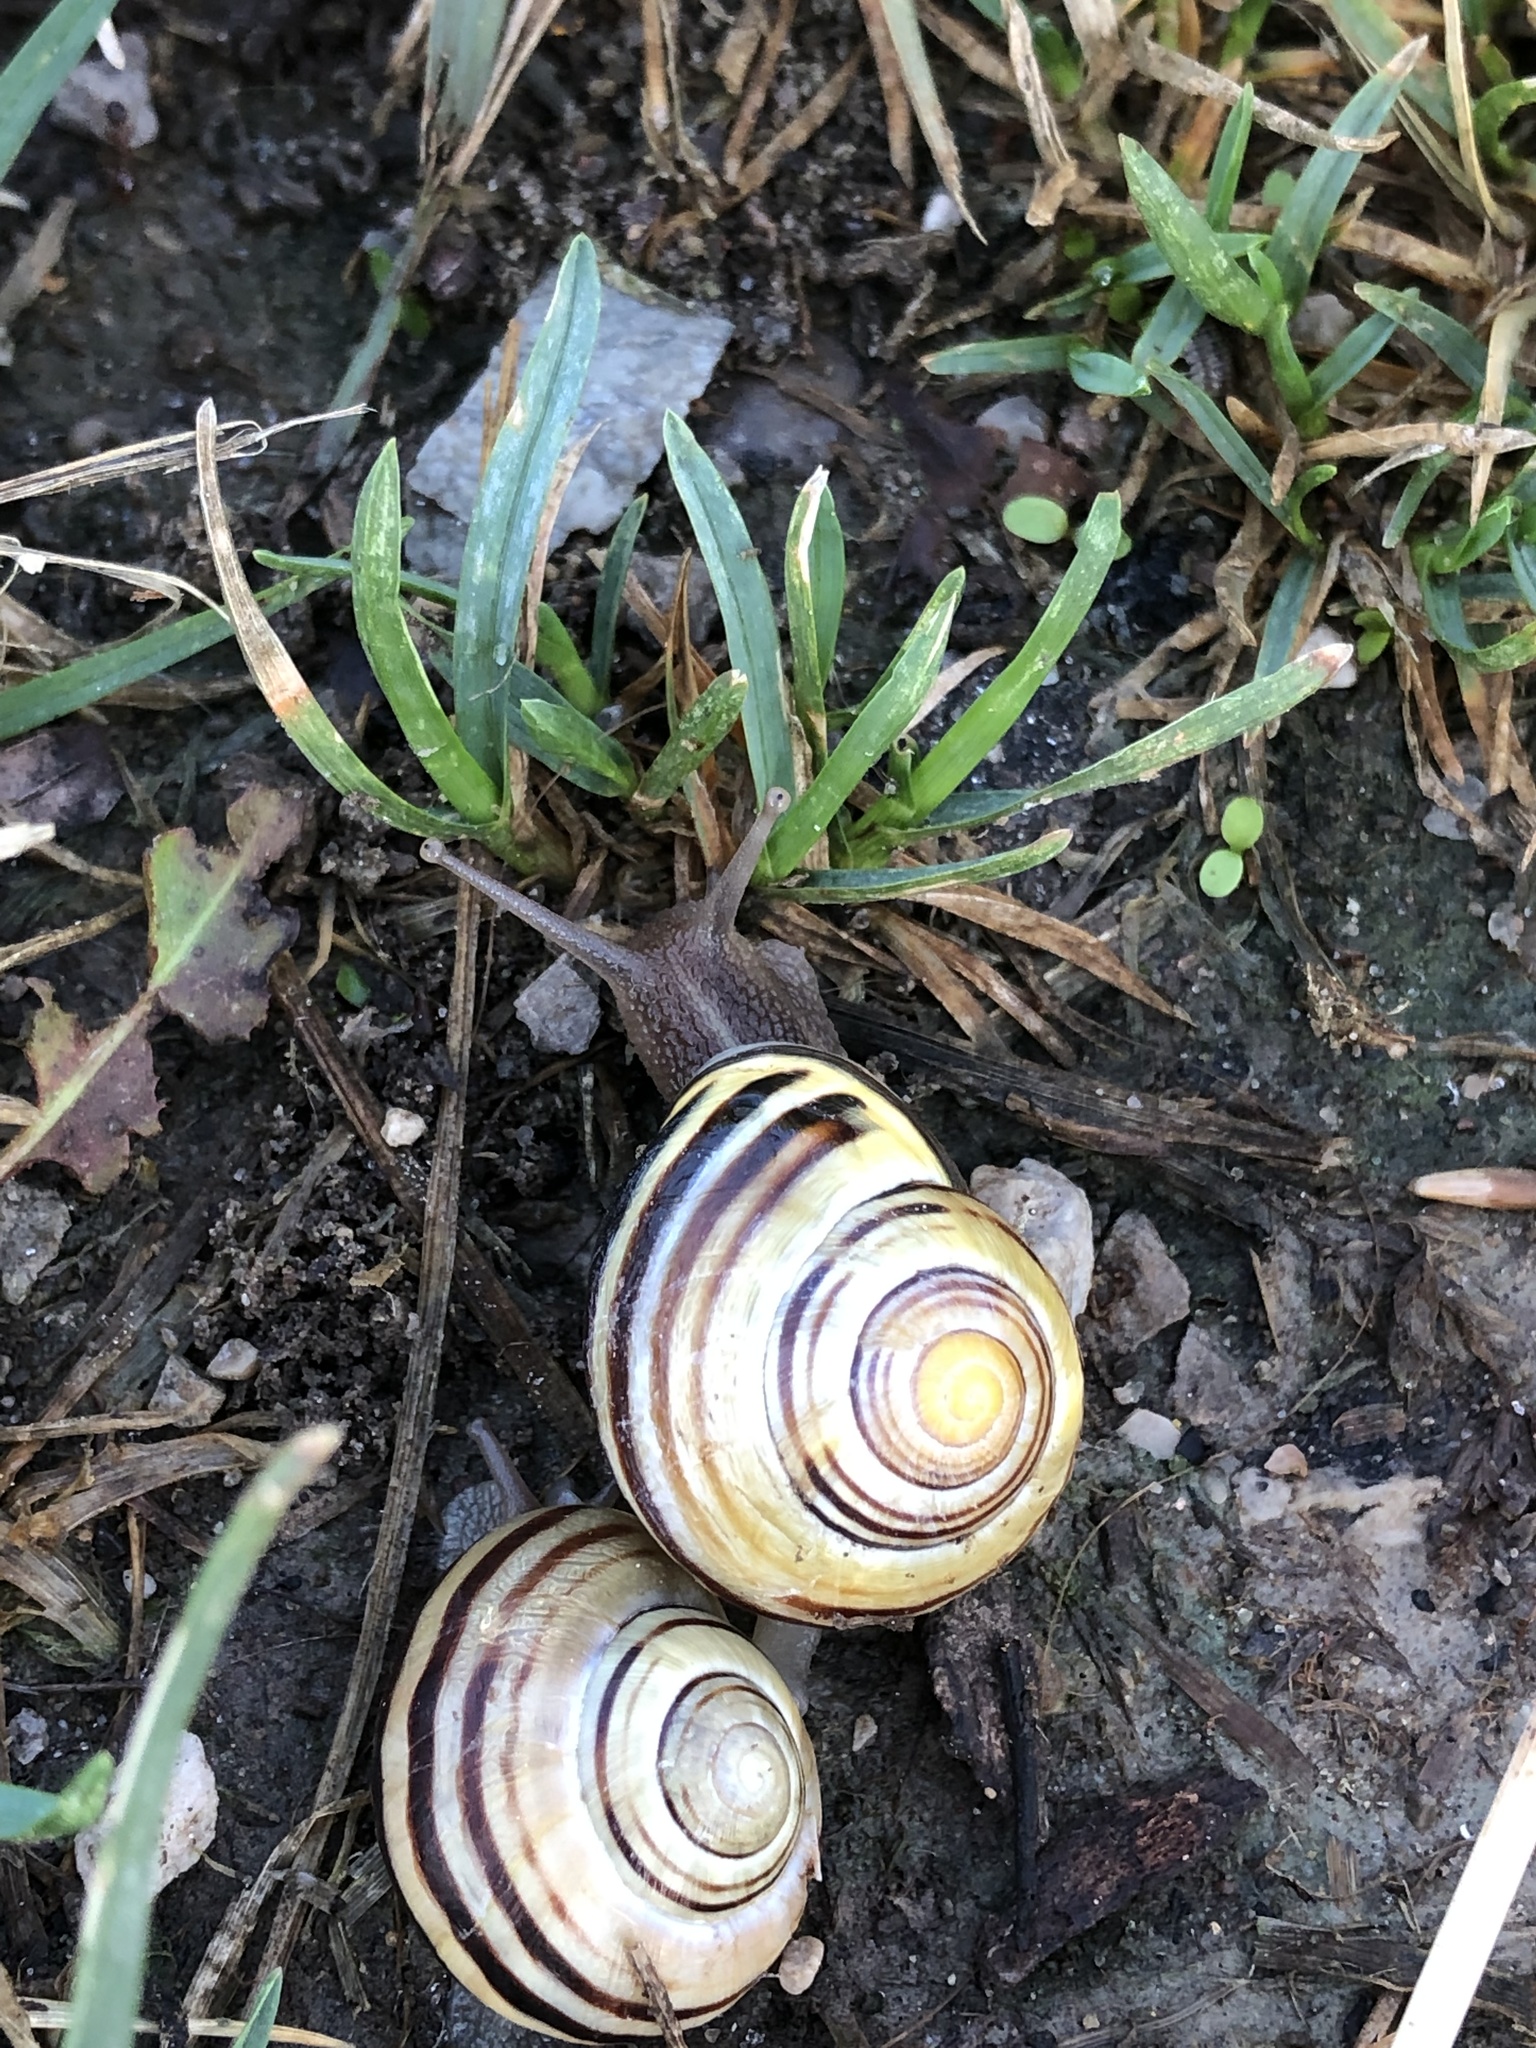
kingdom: Animalia
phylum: Mollusca
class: Gastropoda
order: Stylommatophora
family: Helicidae
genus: Cepaea
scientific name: Cepaea nemoralis
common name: Grovesnail
